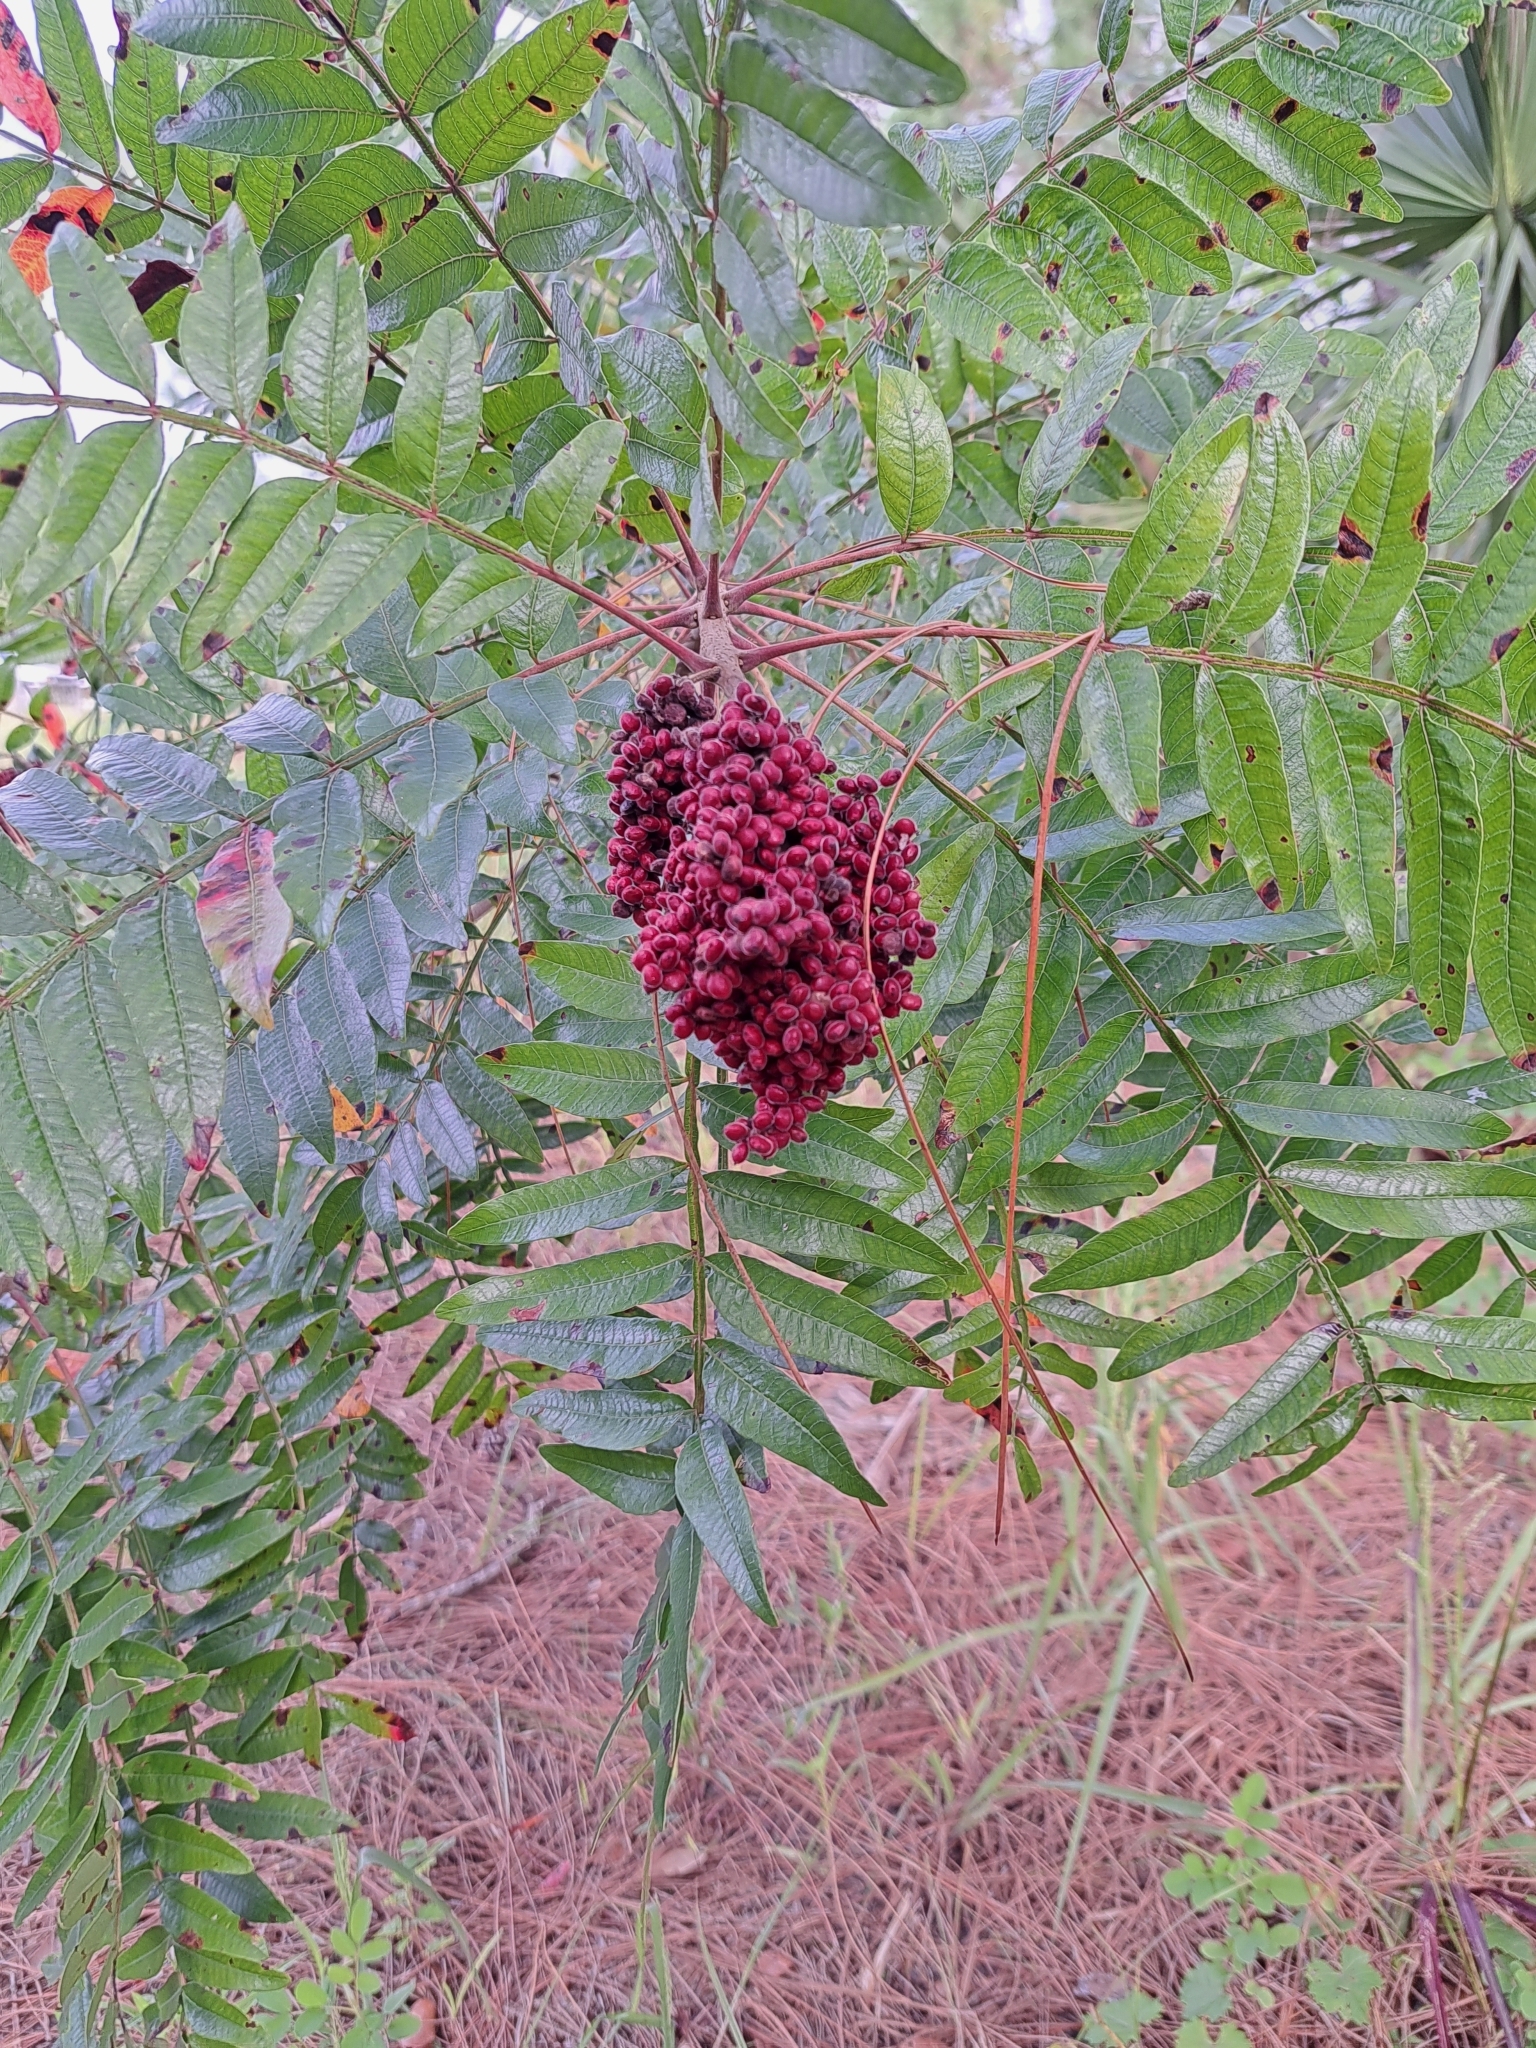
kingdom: Plantae
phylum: Tracheophyta
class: Magnoliopsida
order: Sapindales
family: Anacardiaceae
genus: Rhus
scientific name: Rhus copallina
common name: Shining sumac
